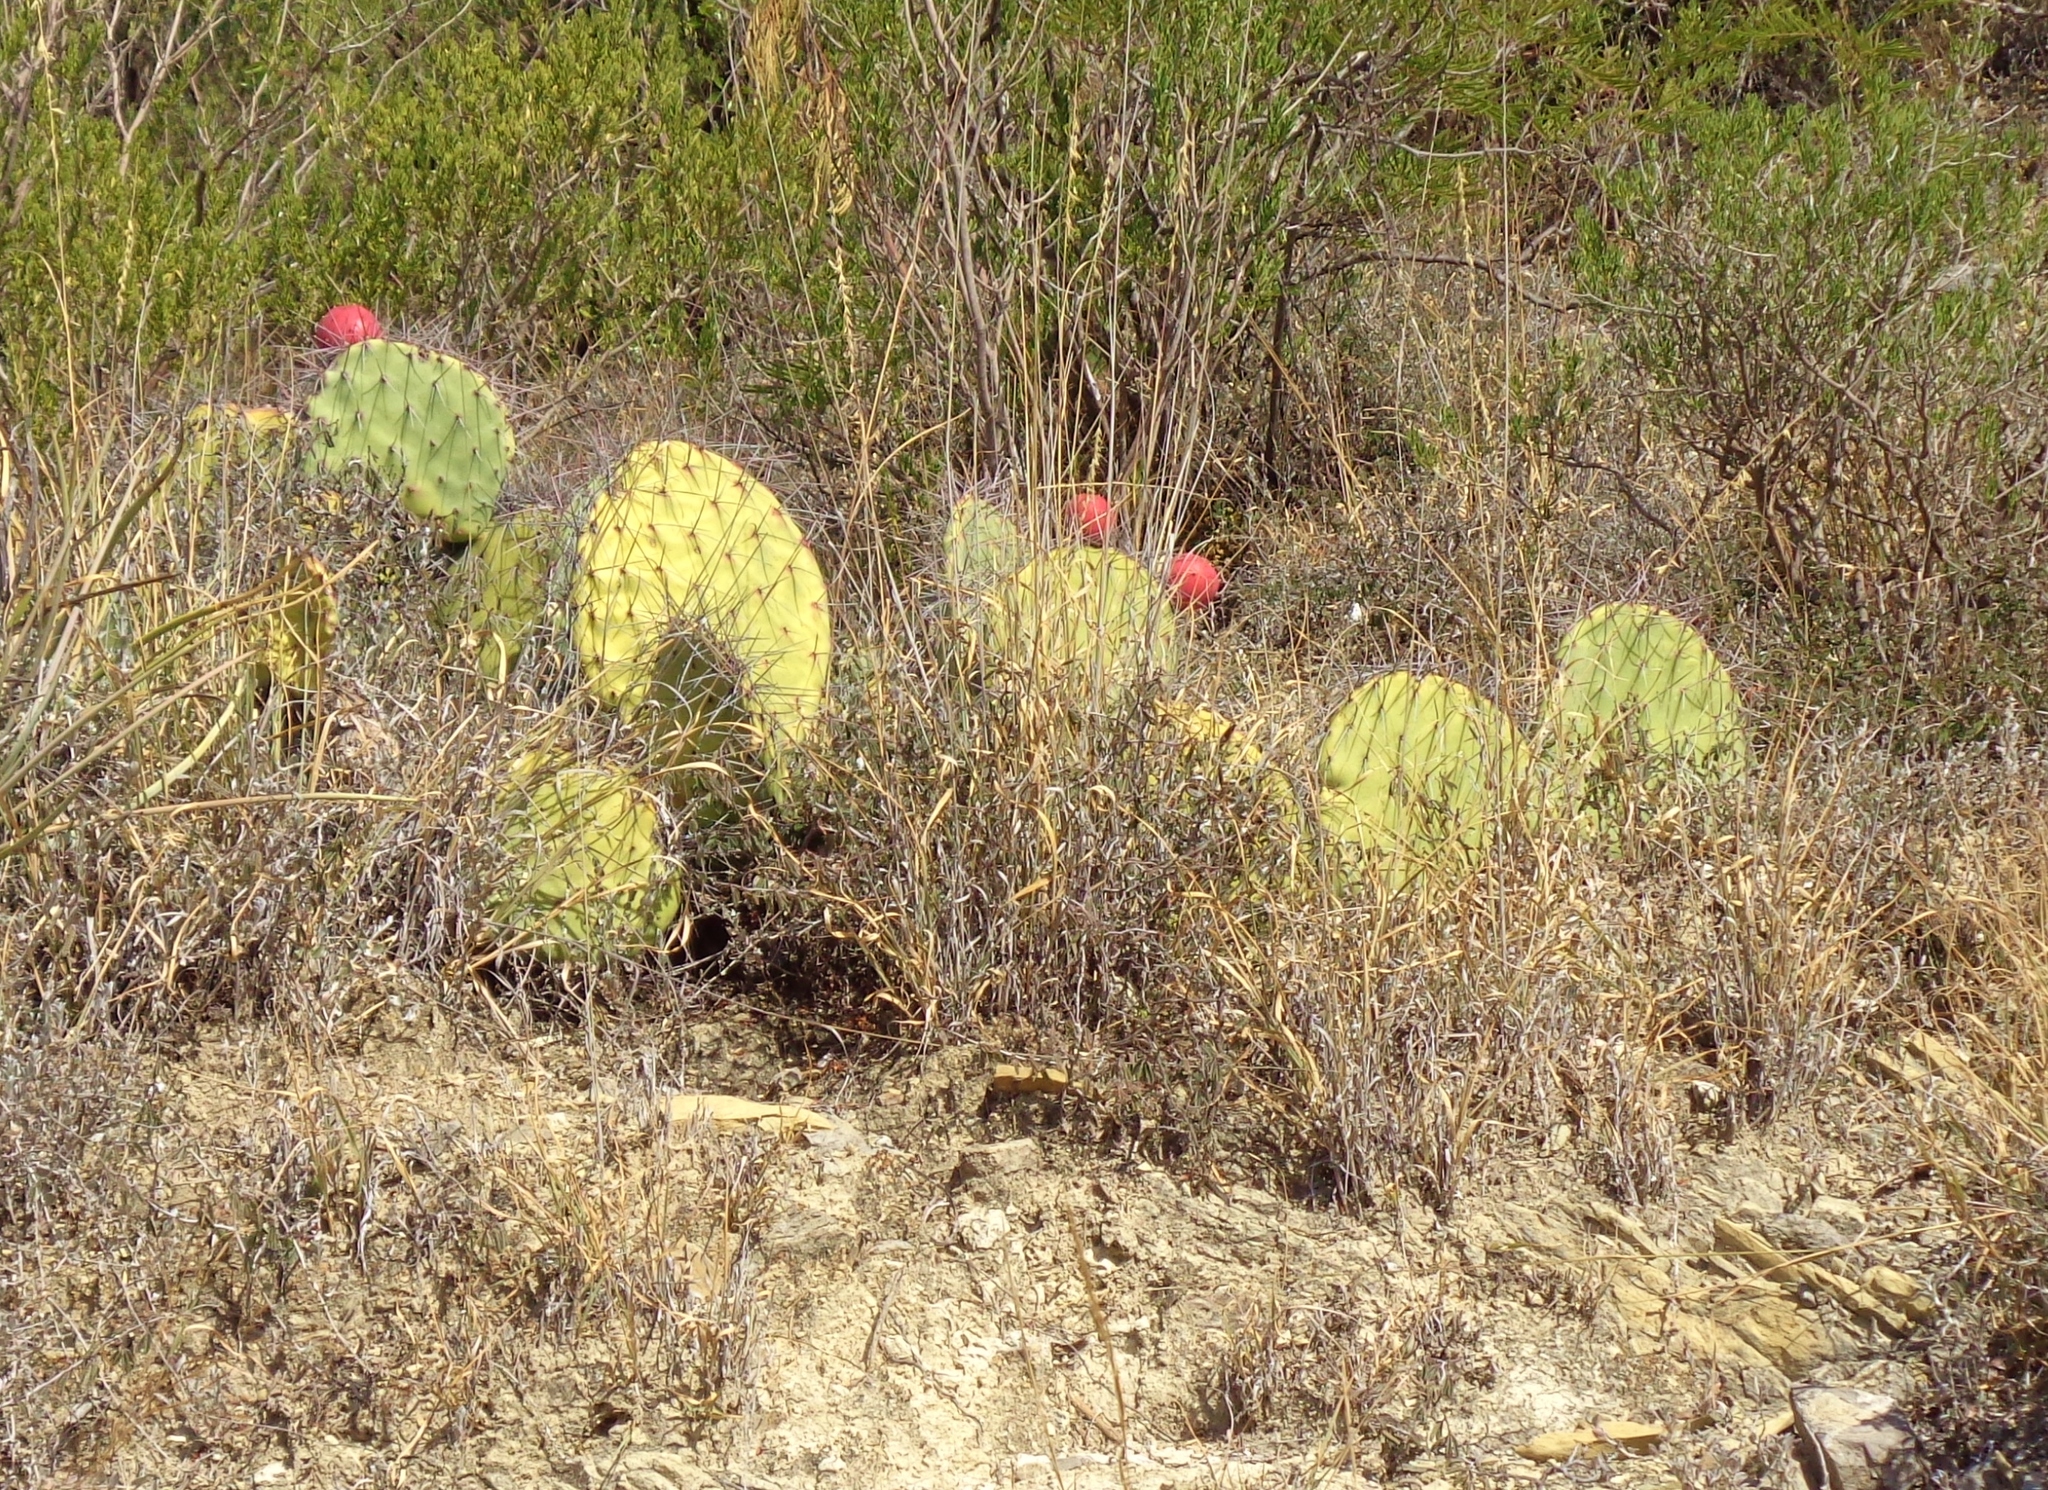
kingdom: Plantae
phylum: Tracheophyta
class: Magnoliopsida
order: Caryophyllales
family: Cactaceae
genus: Opuntia
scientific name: Opuntia stenopetala
